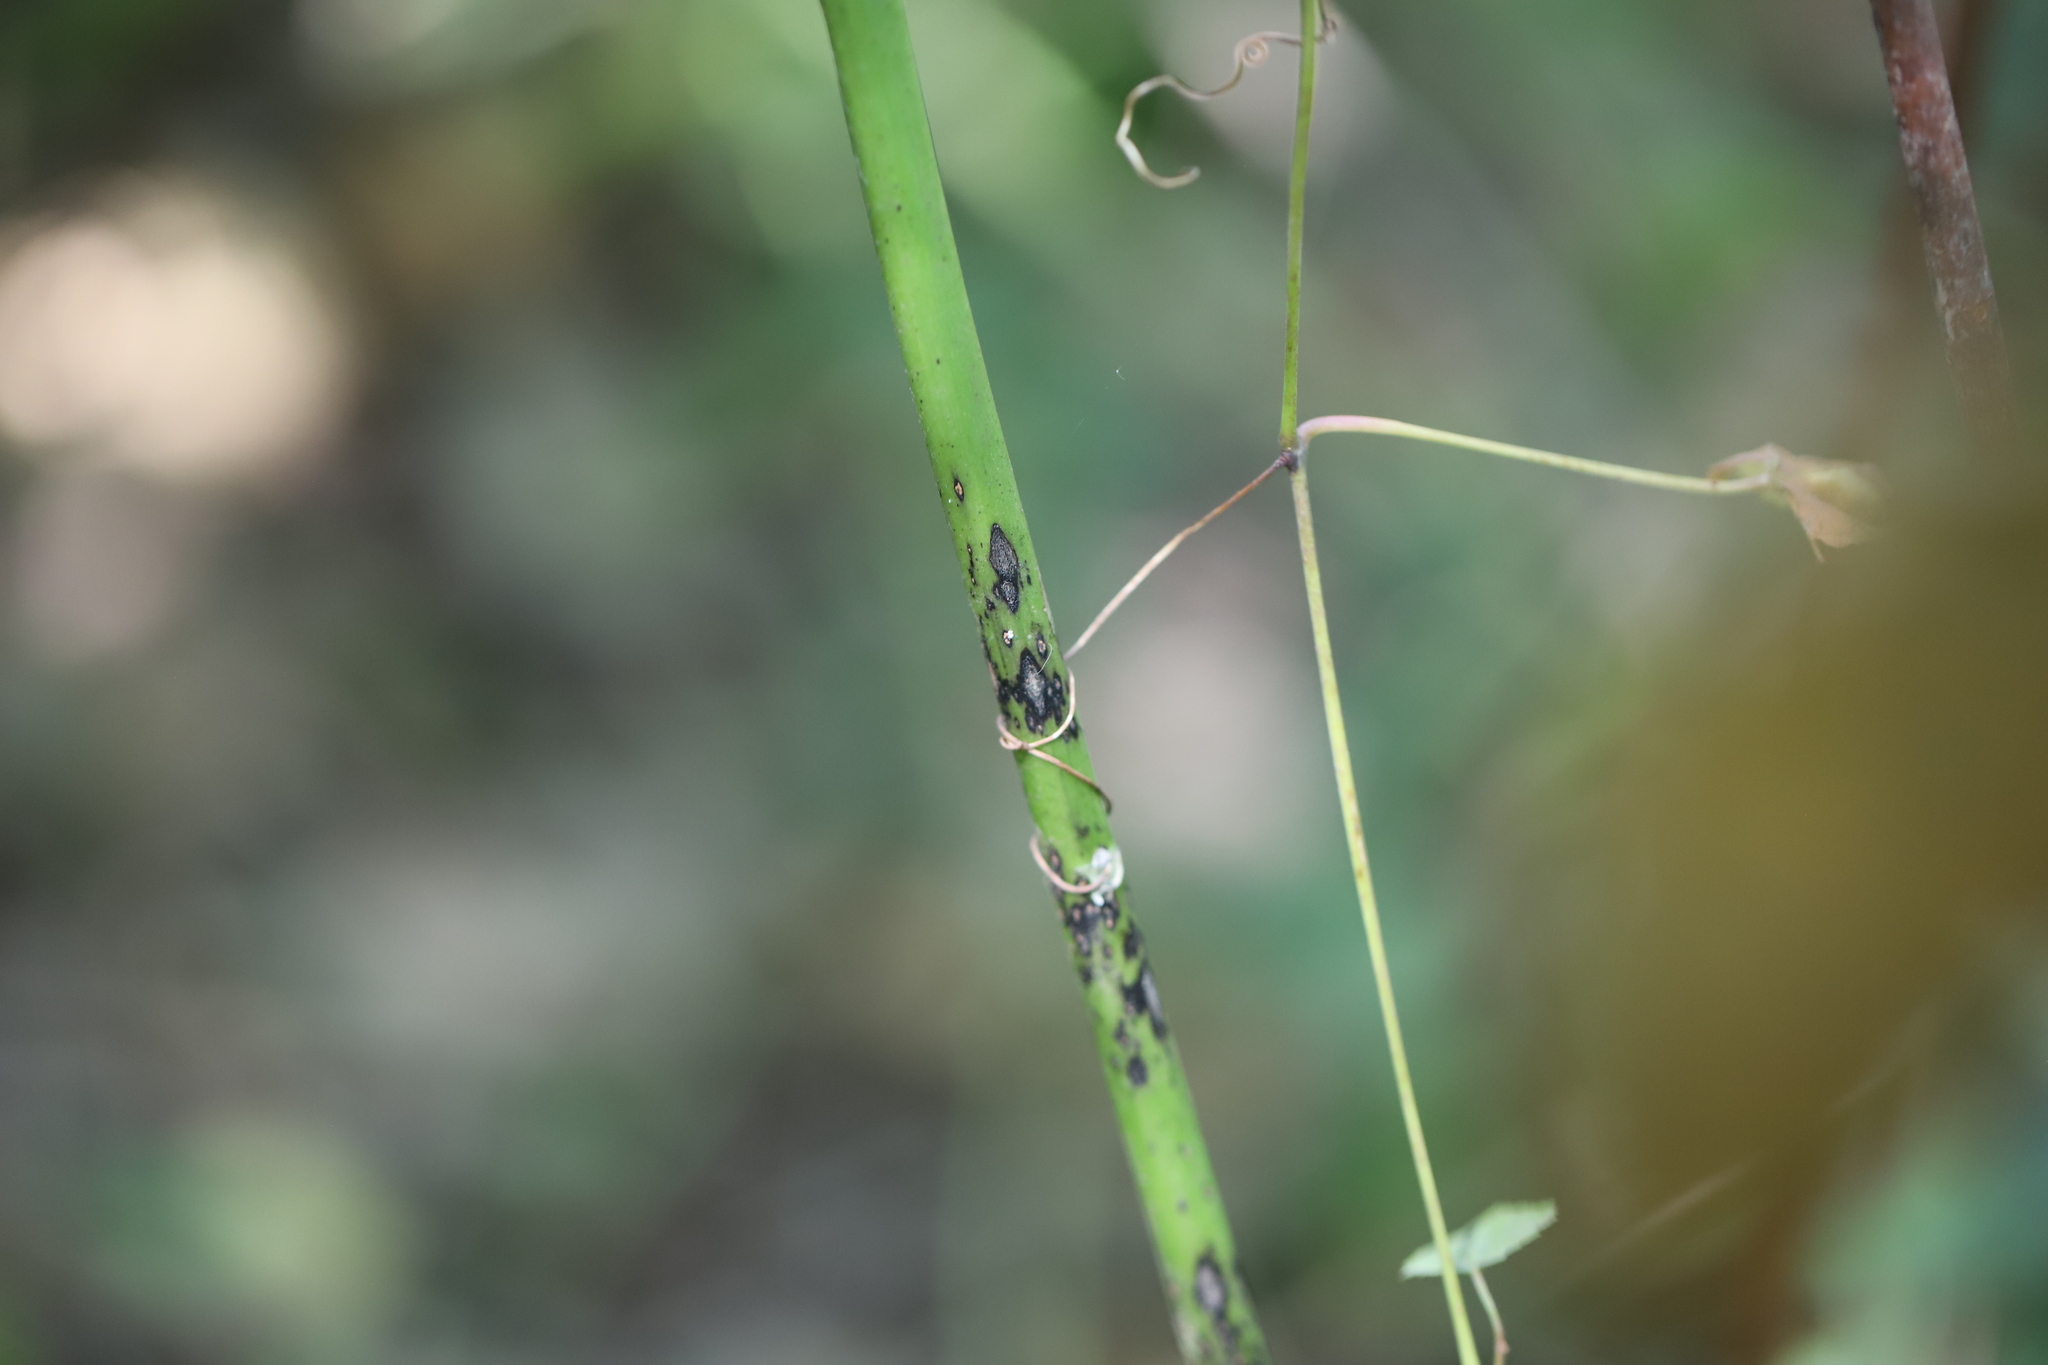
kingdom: Animalia
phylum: Arthropoda
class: Insecta
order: Diptera
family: Agromyzidae
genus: Liriomyza
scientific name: Liriomyza asclepiadis
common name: Milkweed leaf-miner fly
